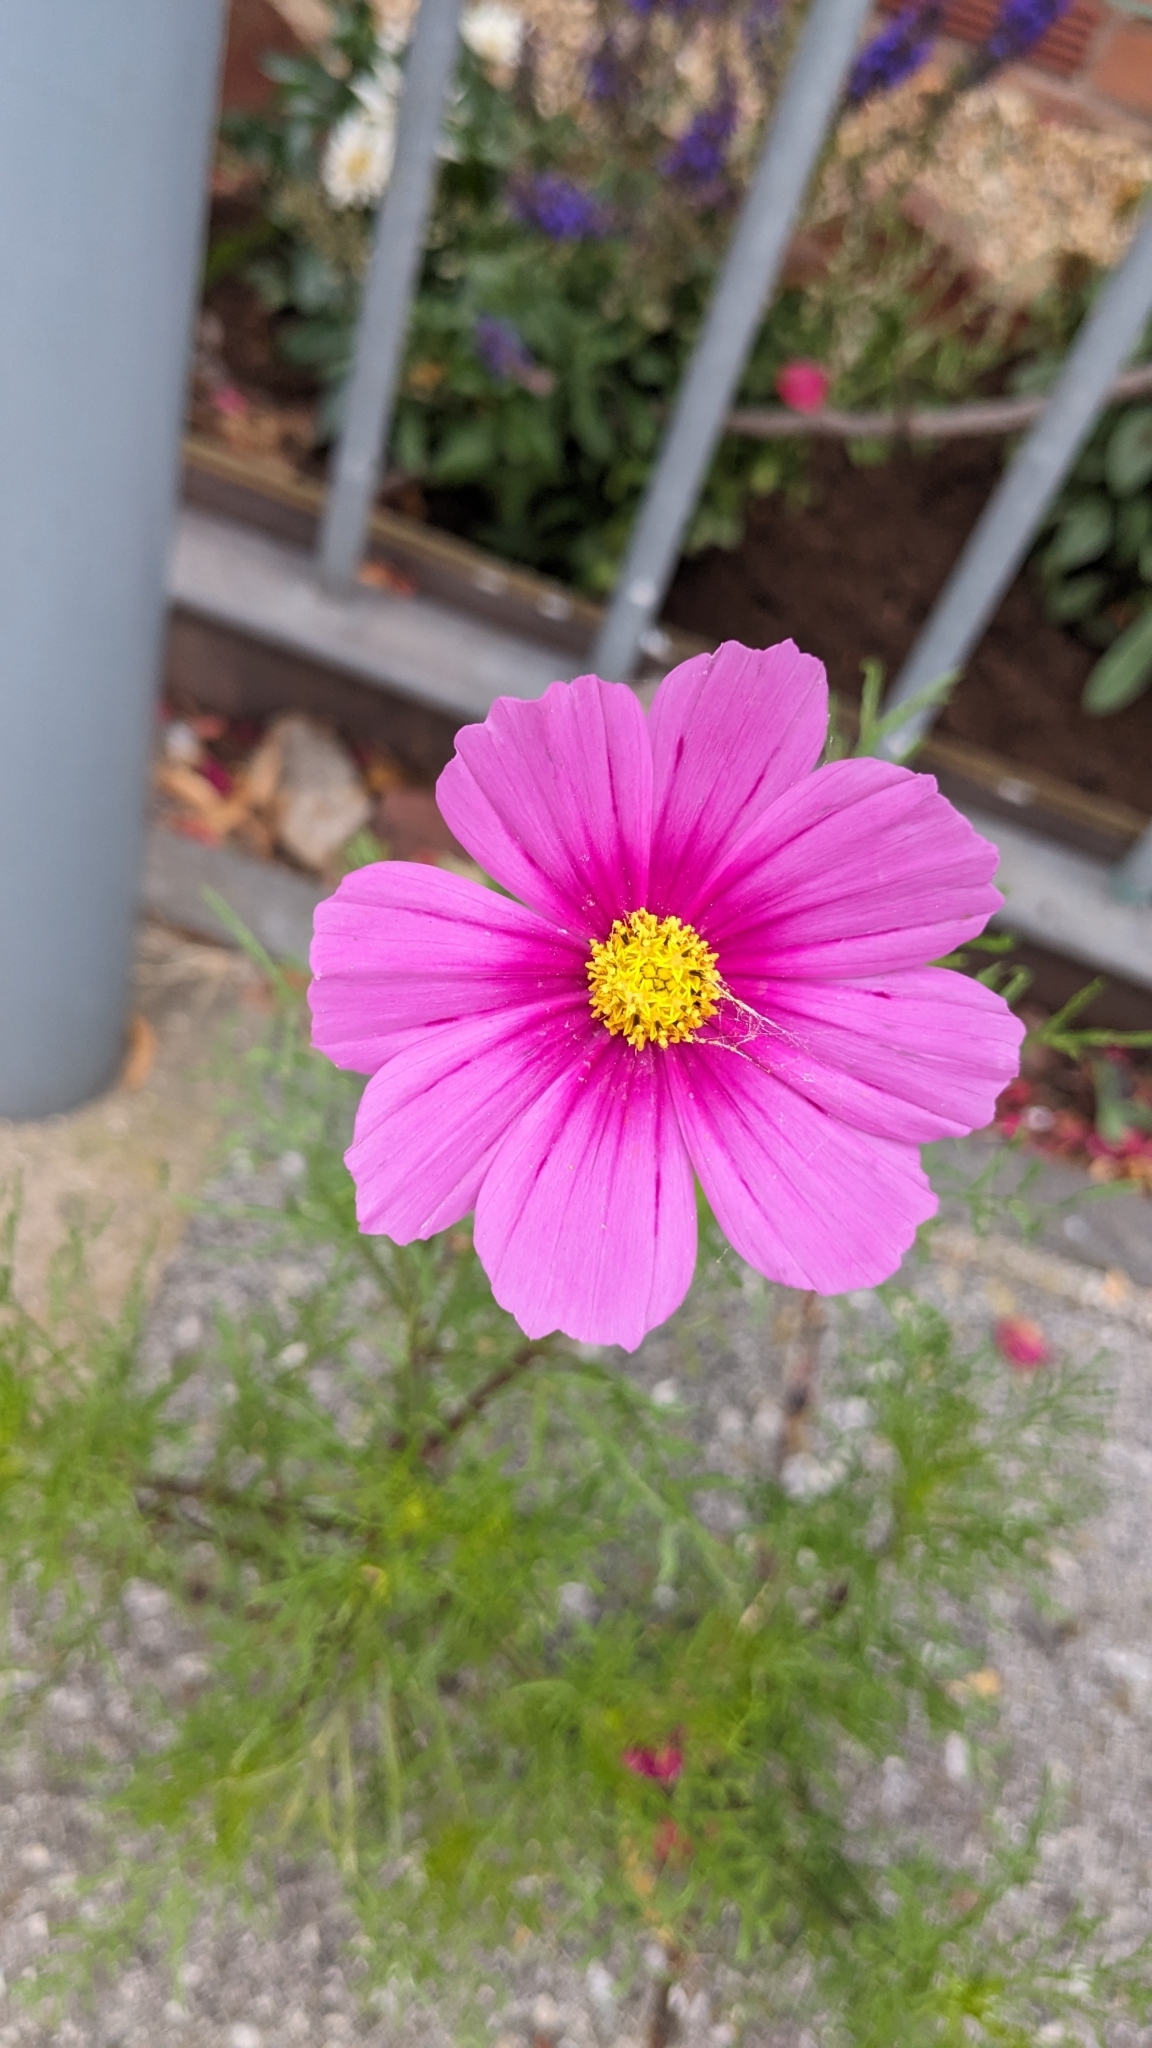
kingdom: Plantae
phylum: Tracheophyta
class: Magnoliopsida
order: Asterales
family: Asteraceae
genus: Cosmos
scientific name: Cosmos bipinnatus
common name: Garden cosmos
